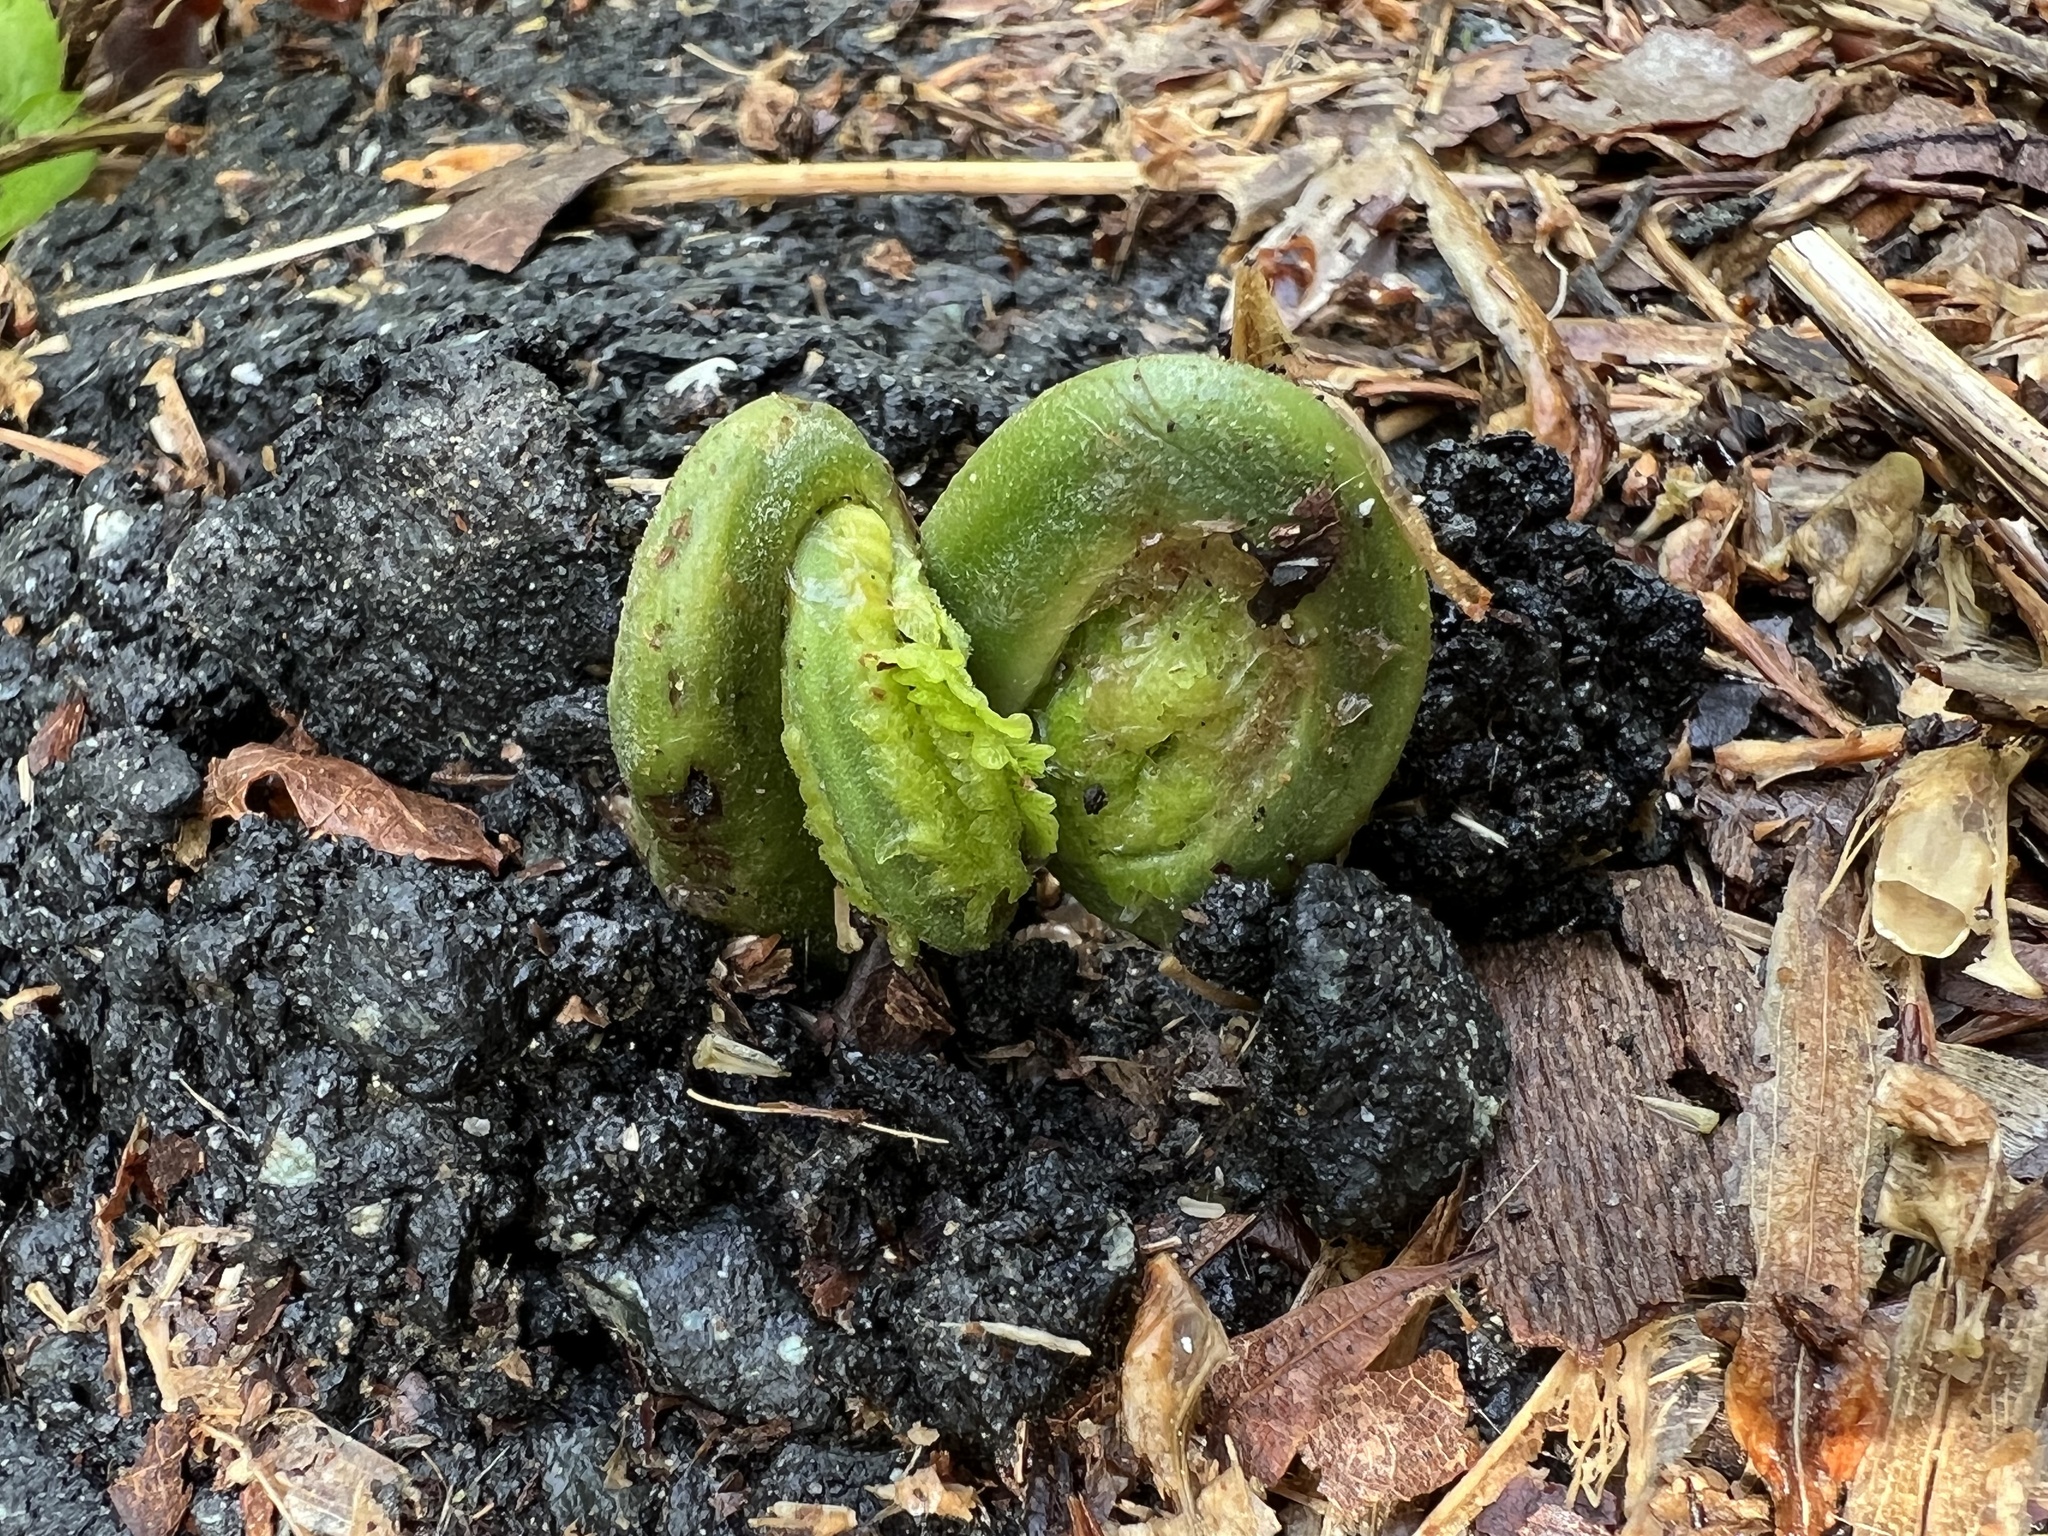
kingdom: Plantae
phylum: Tracheophyta
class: Polypodiopsida
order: Polypodiales
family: Onocleaceae
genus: Matteuccia
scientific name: Matteuccia struthiopteris
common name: Ostrich fern
